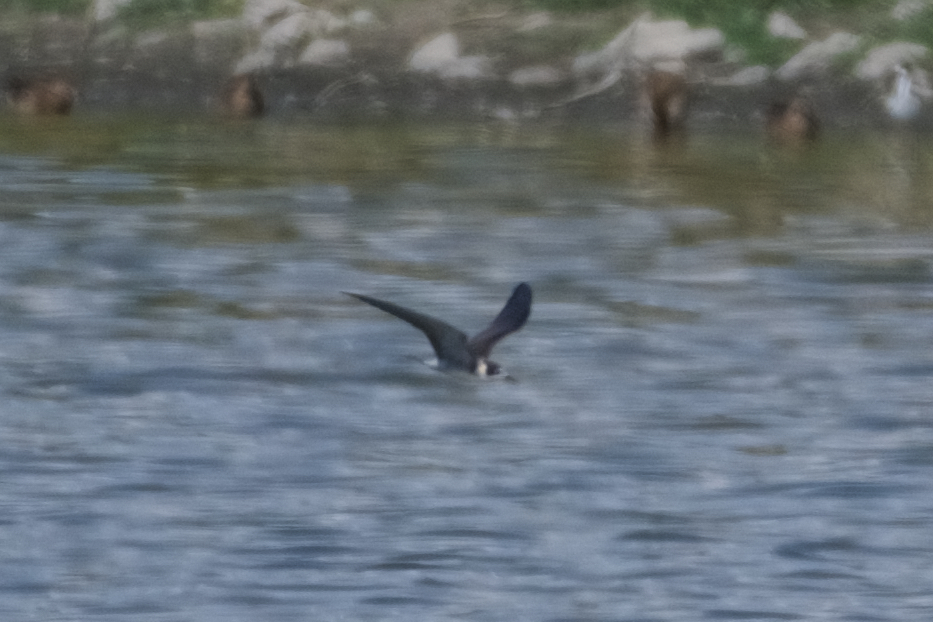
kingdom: Animalia
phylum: Chordata
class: Aves
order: Charadriiformes
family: Laridae
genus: Chlidonias
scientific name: Chlidonias niger
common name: Black tern
